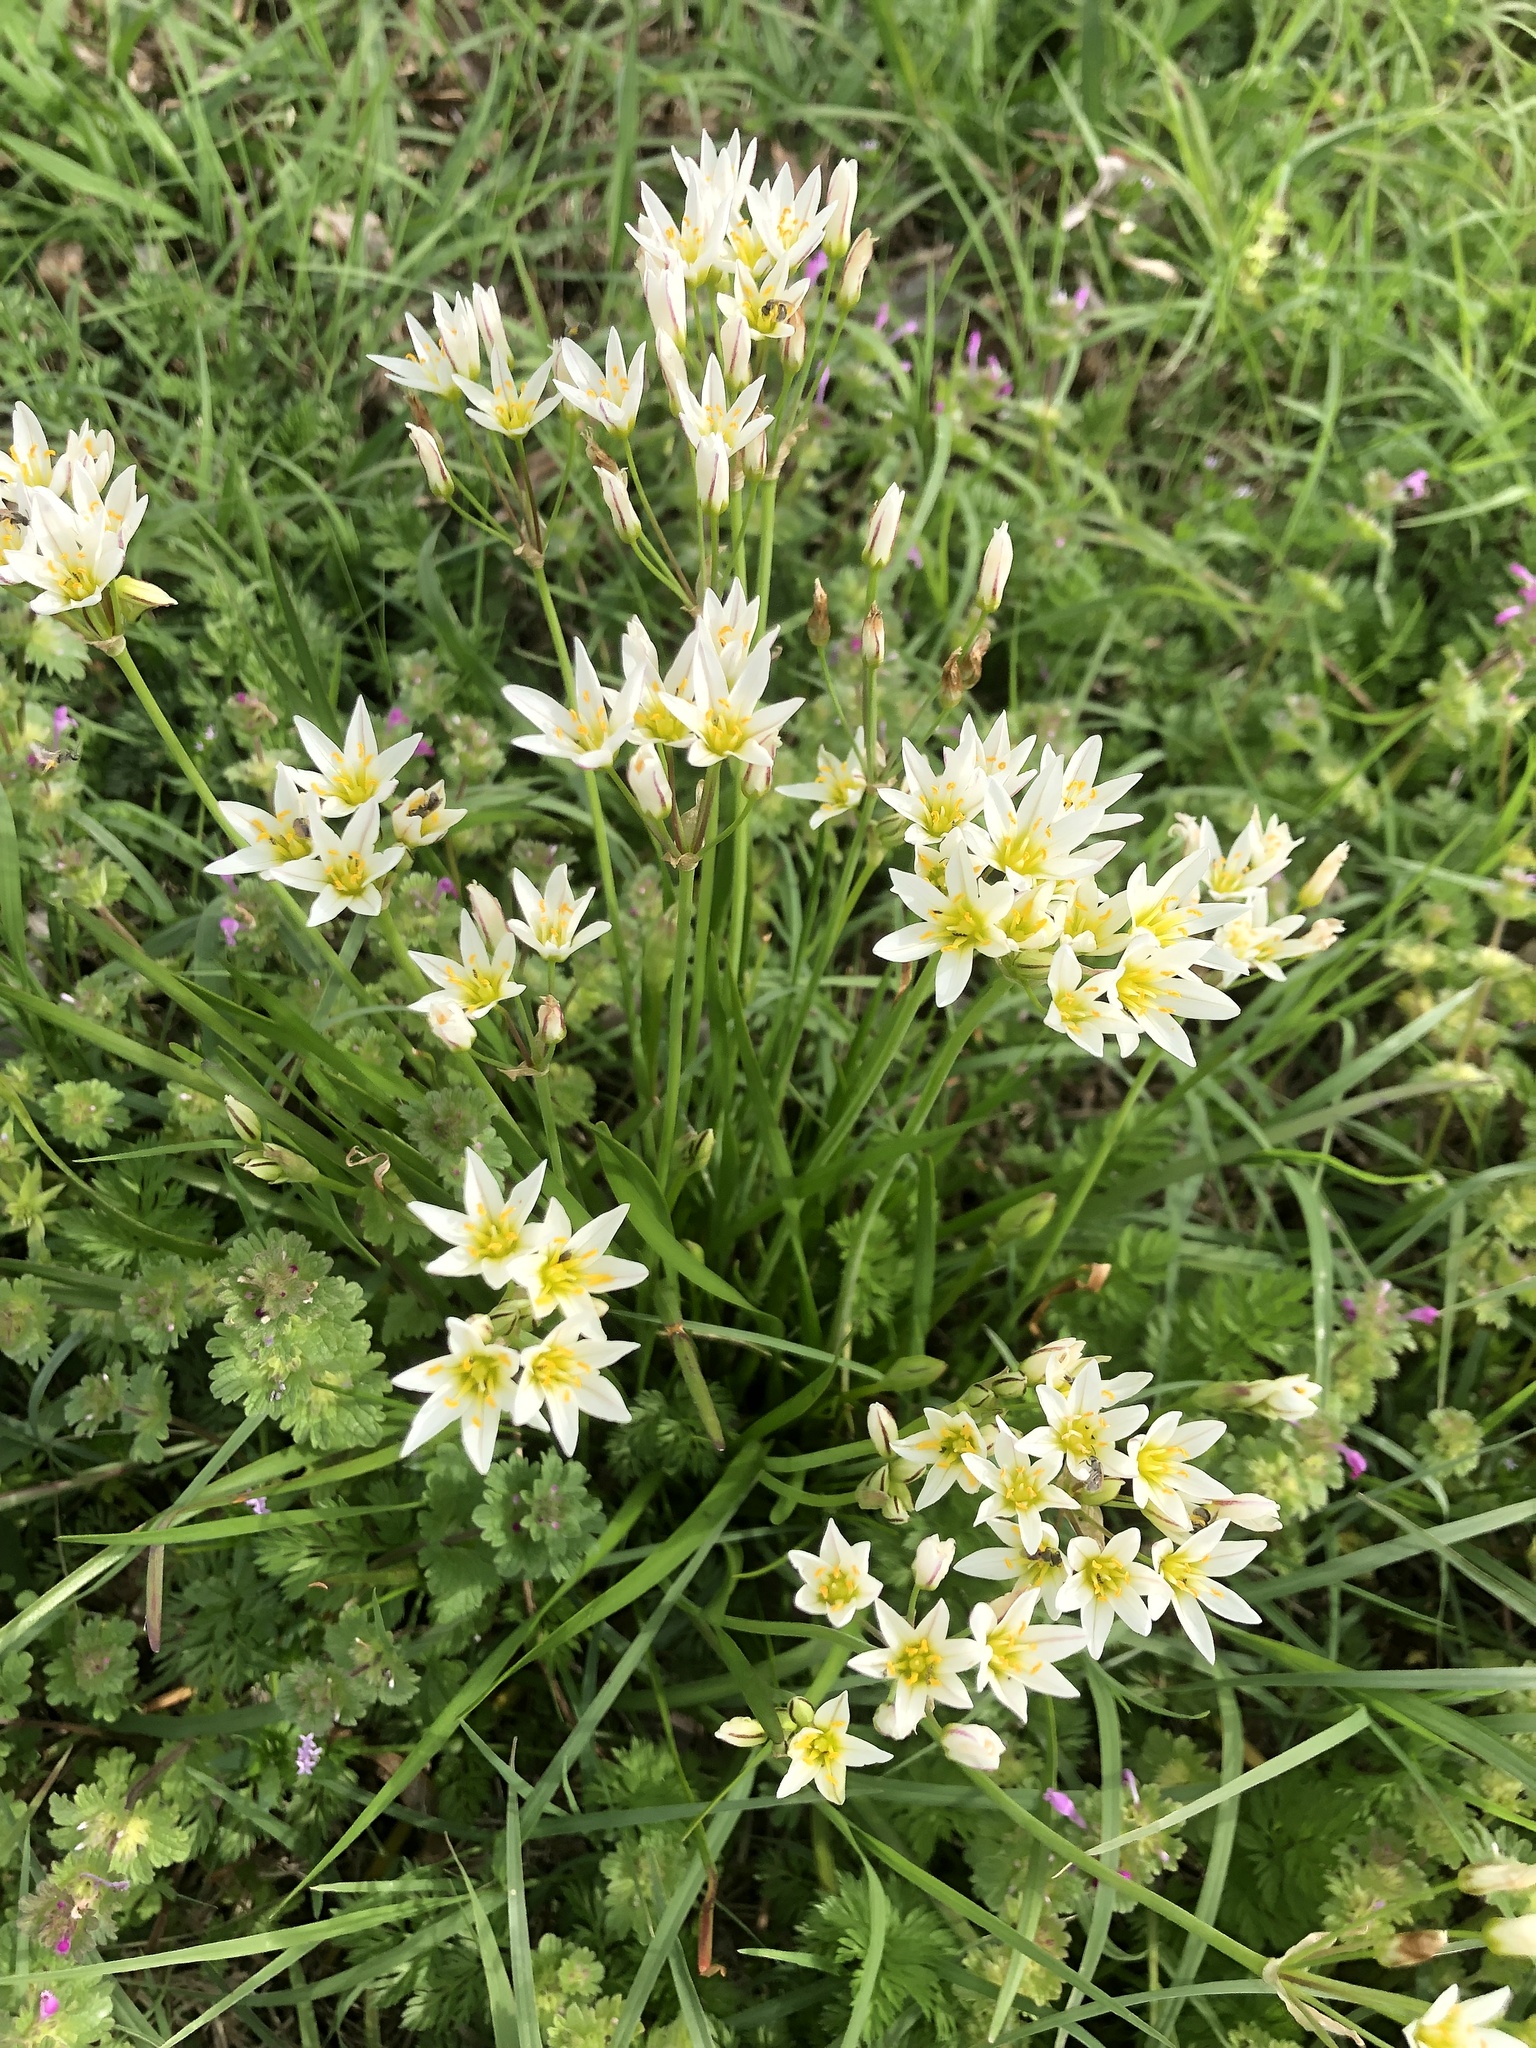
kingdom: Plantae
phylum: Tracheophyta
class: Liliopsida
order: Asparagales
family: Amaryllidaceae
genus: Nothoscordum
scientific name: Nothoscordum bivalve
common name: Crow-poison
